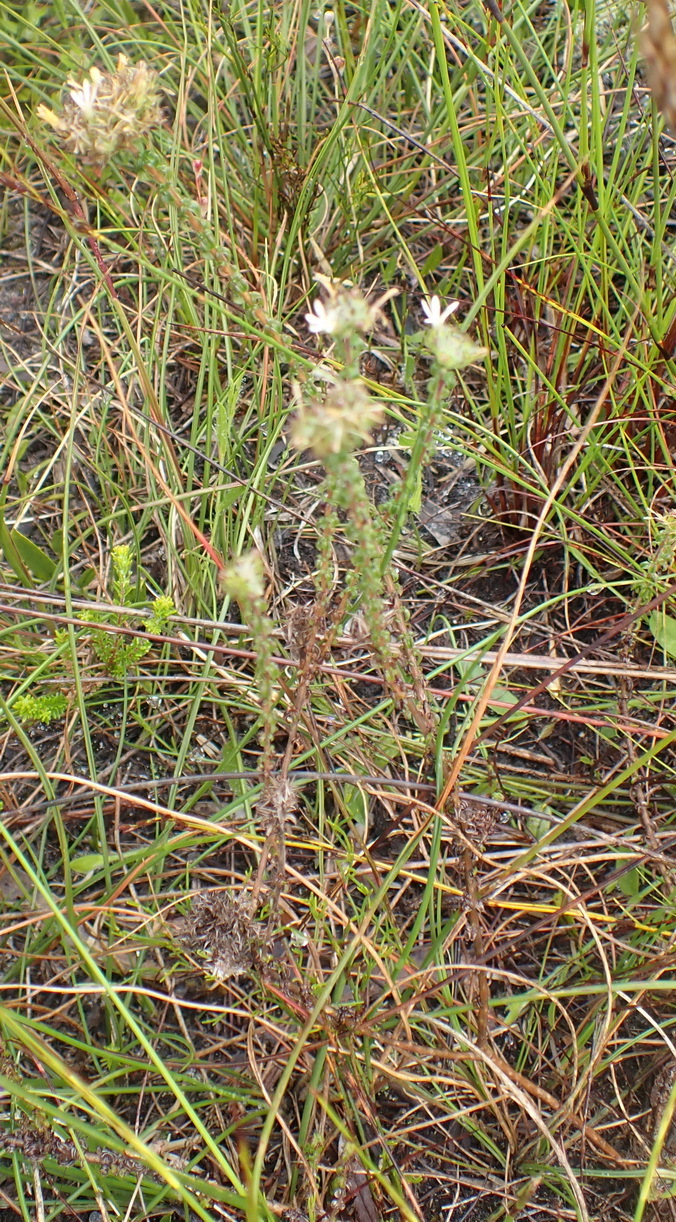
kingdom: Plantae
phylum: Tracheophyta
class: Magnoliopsida
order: Asterales
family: Campanulaceae
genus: Wahlenbergia
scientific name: Wahlenbergia desmantha
